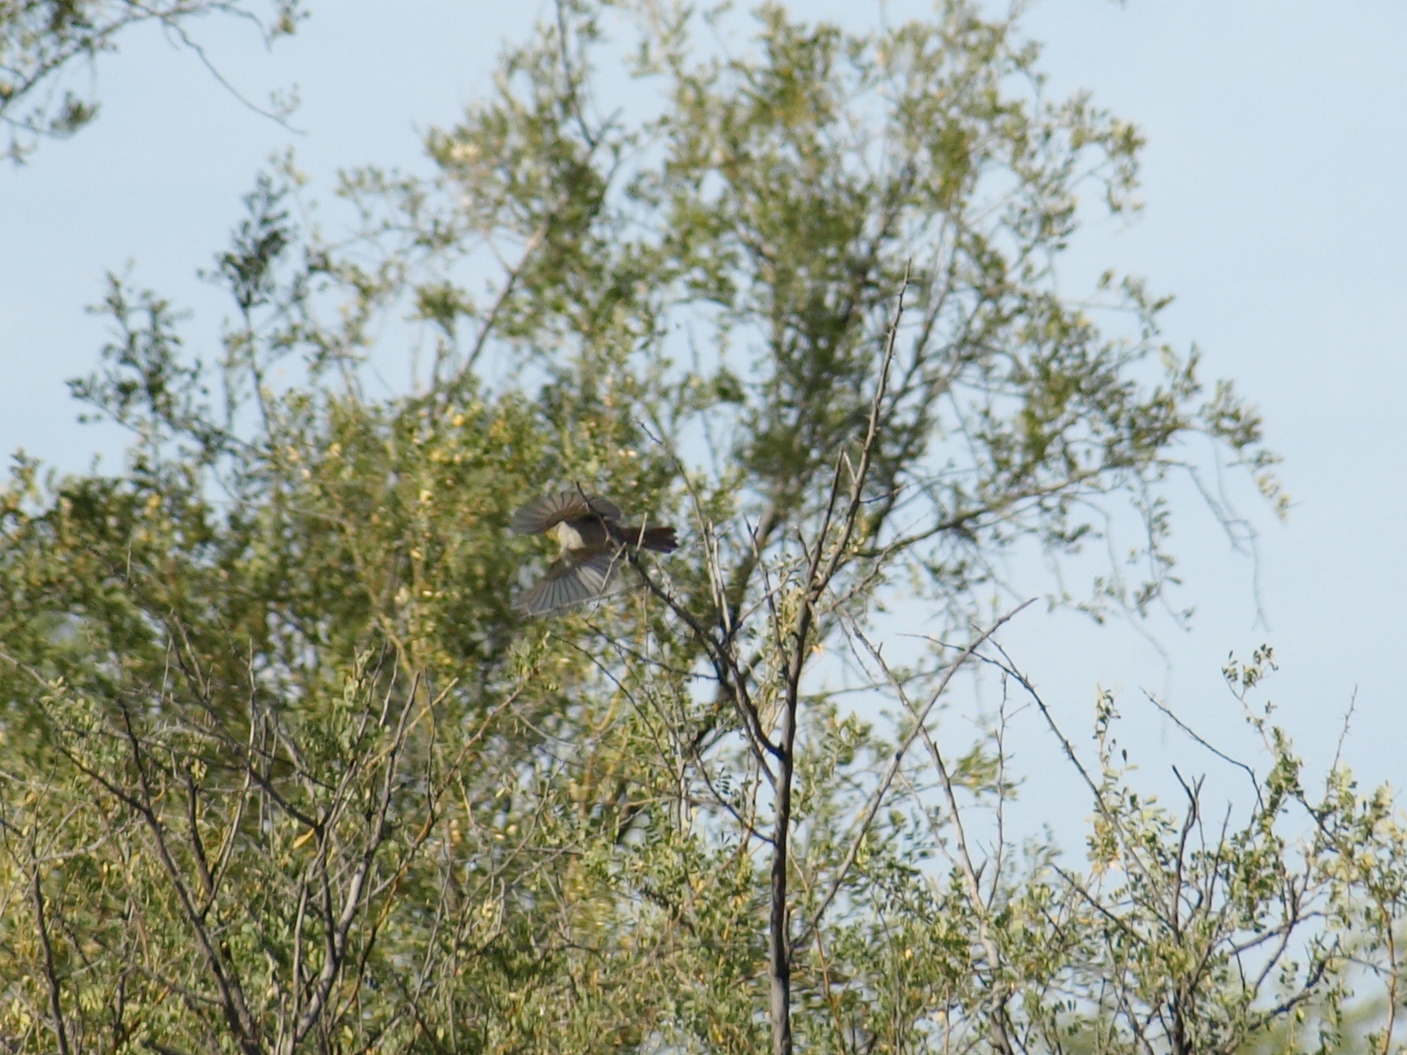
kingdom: Animalia
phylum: Chordata
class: Aves
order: Passeriformes
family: Remizidae
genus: Auriparus
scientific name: Auriparus flaviceps
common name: Verdin
